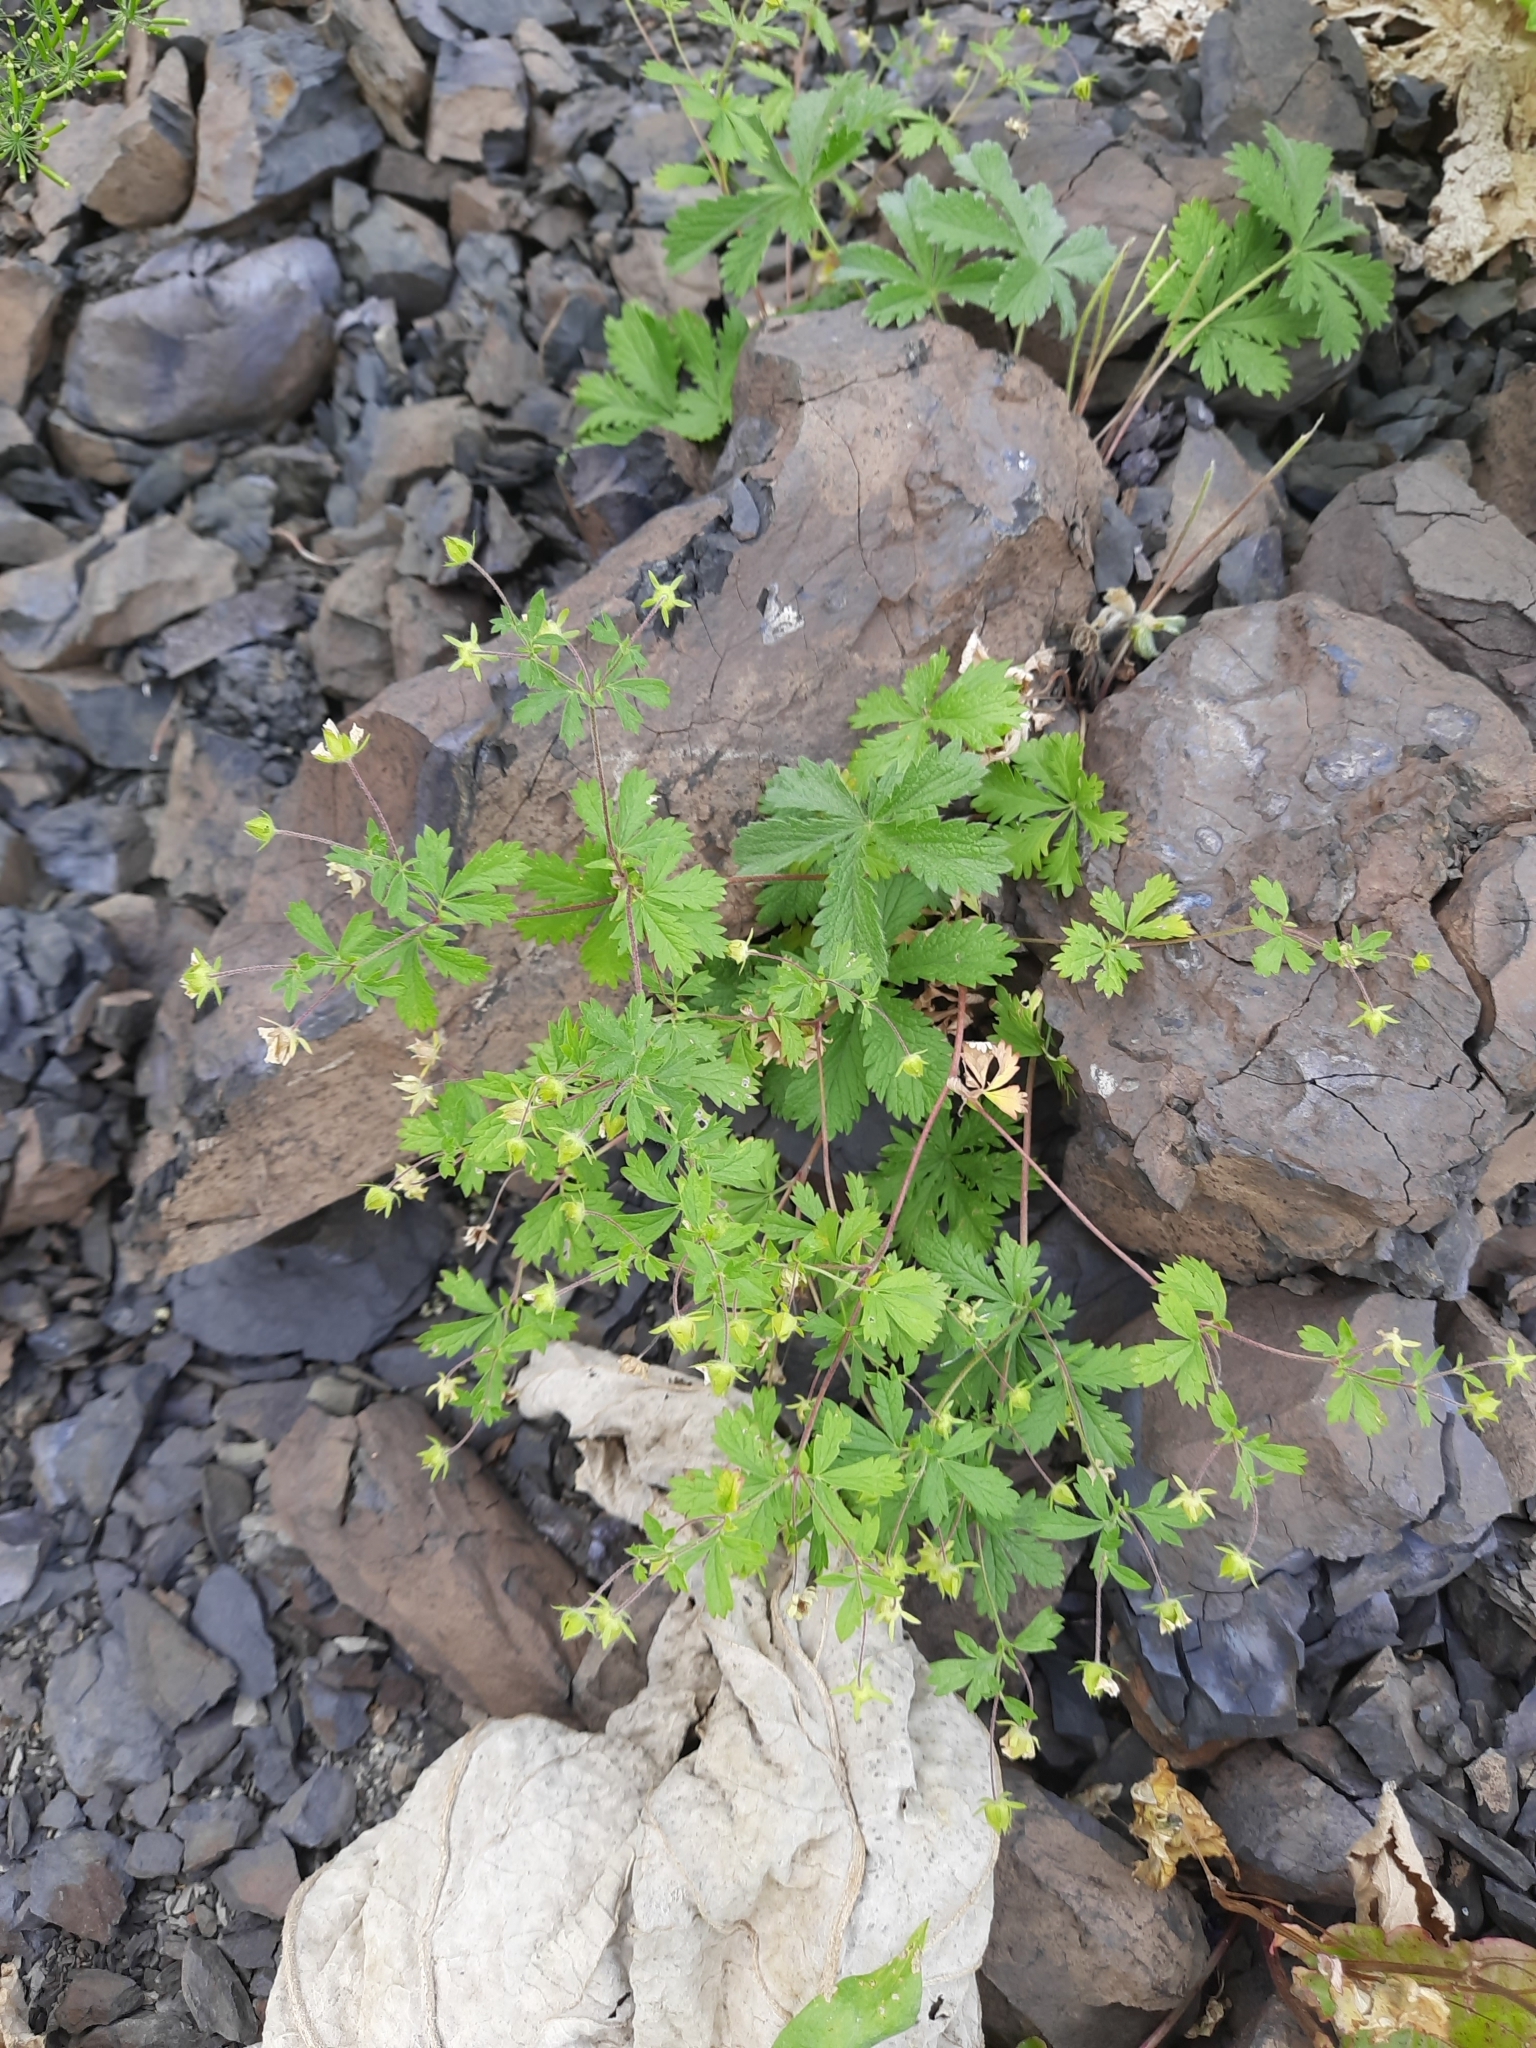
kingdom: Plantae
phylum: Tracheophyta
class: Magnoliopsida
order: Rosales
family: Rosaceae
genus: Potentilla
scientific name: Potentilla thuringiaca
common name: European cinquefoil
